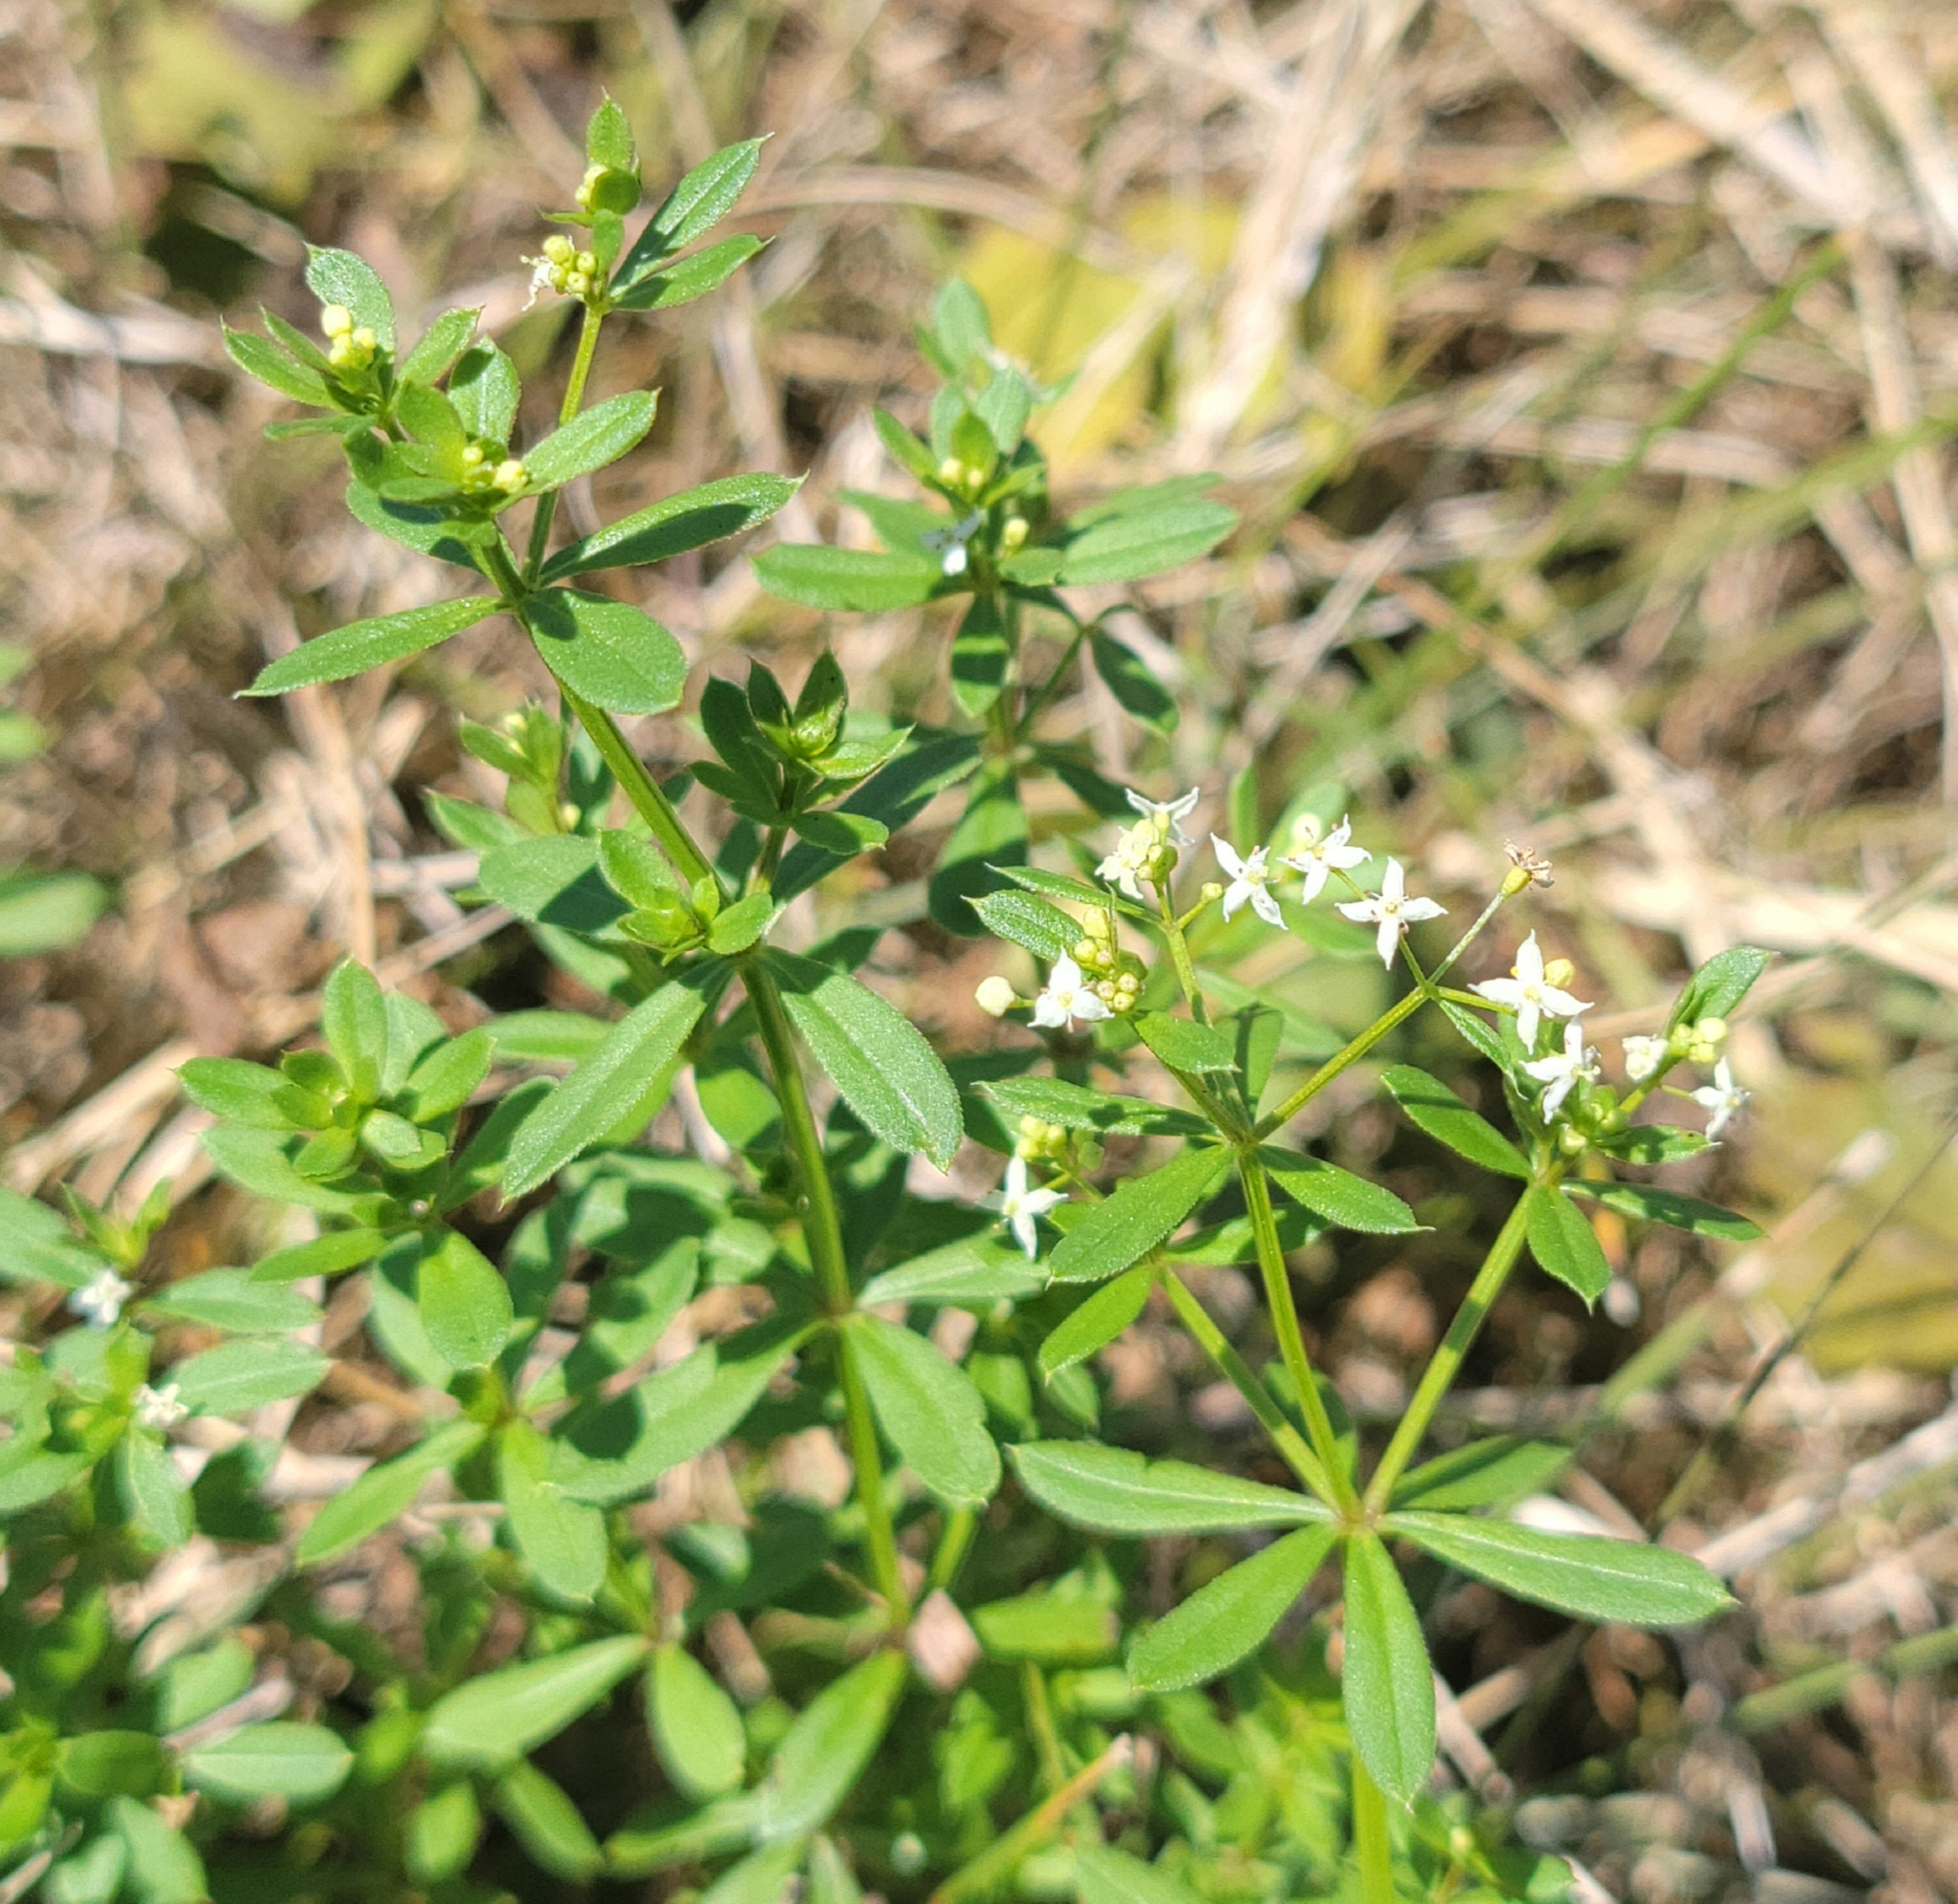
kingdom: Plantae
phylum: Tracheophyta
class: Magnoliopsida
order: Gentianales
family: Rubiaceae
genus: Galium
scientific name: Galium mollugo
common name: Hedge bedstraw
